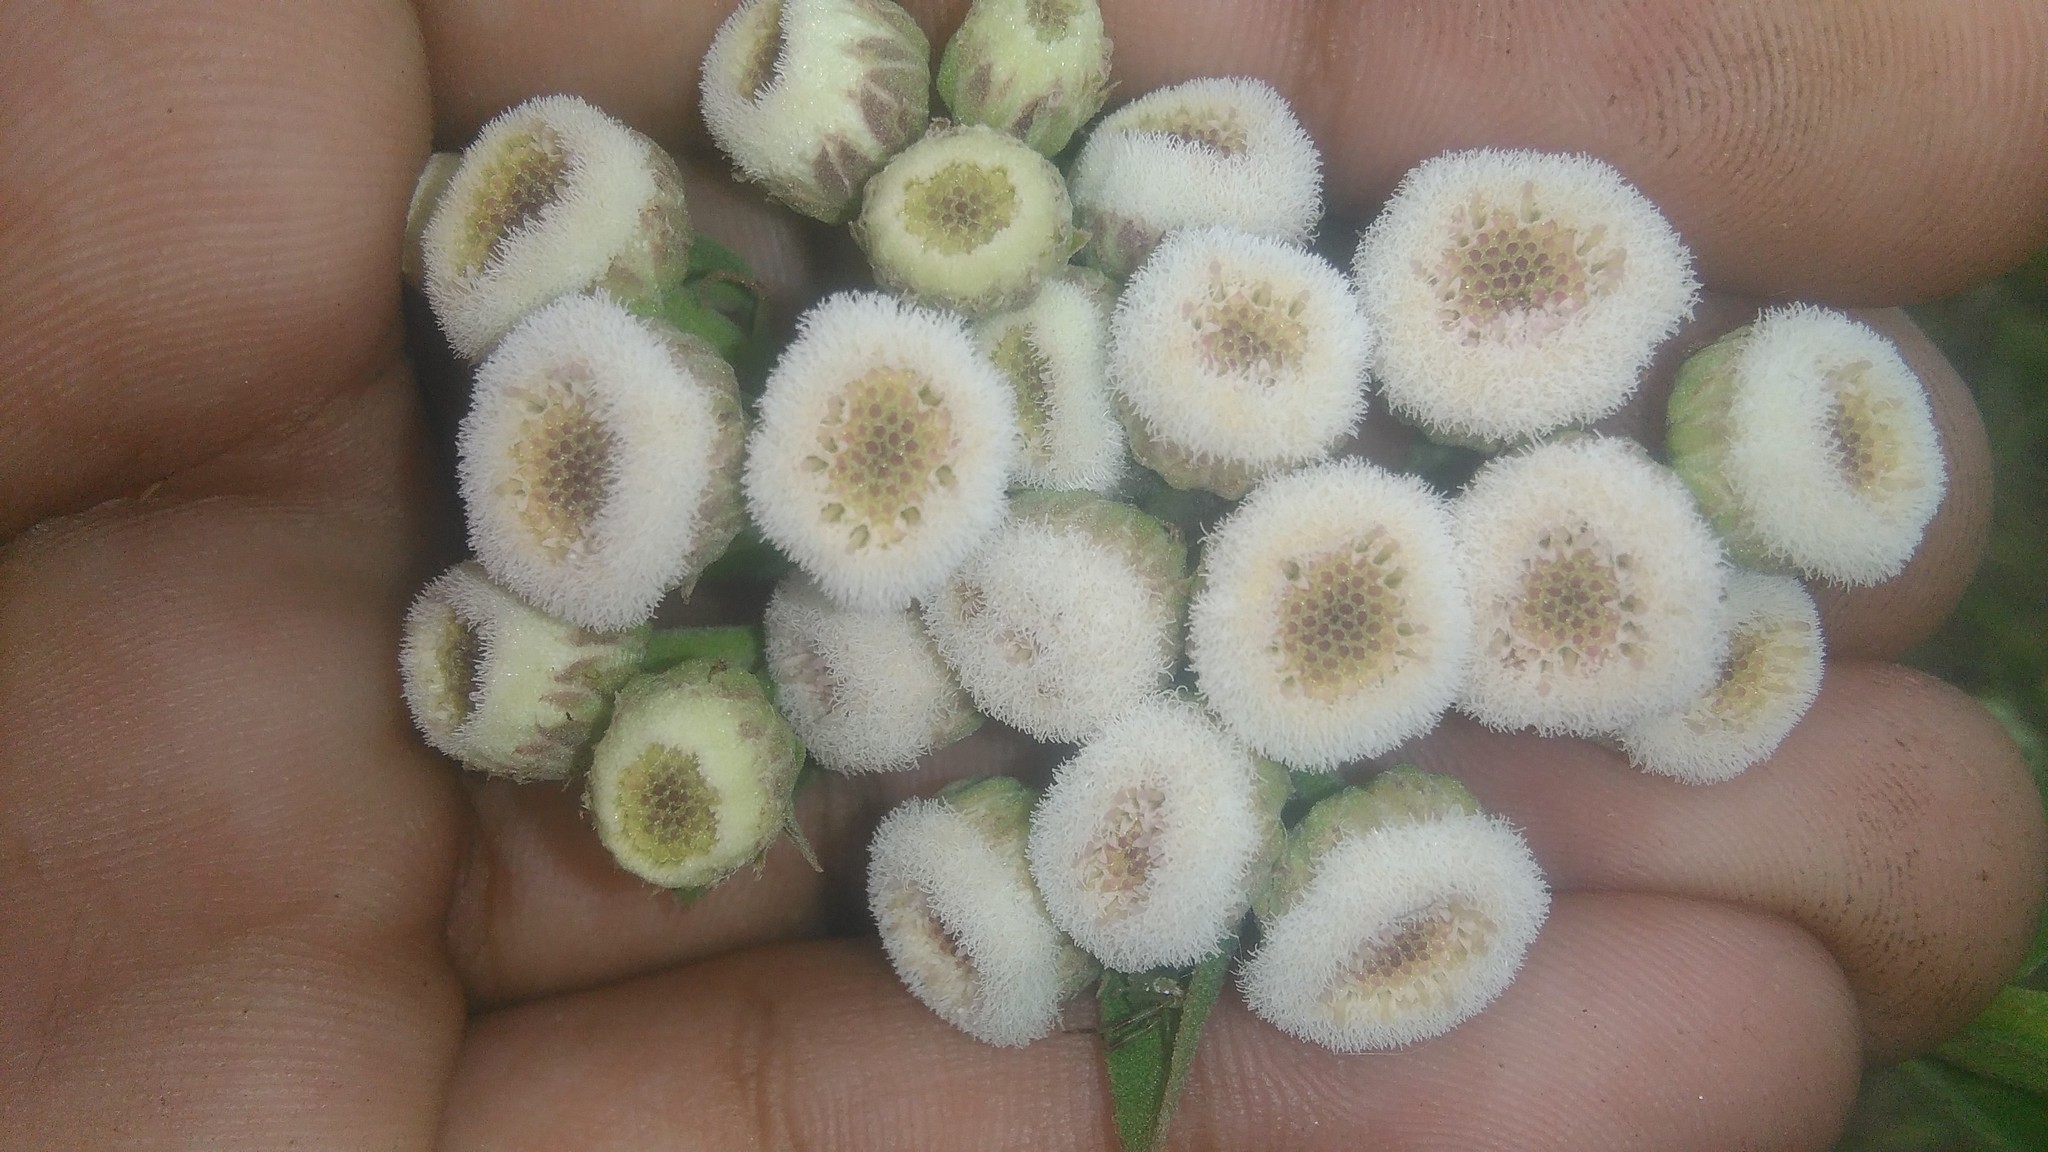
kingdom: Plantae
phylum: Tracheophyta
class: Magnoliopsida
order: Asterales
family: Asteraceae
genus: Pluchea
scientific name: Pluchea sagittalis
